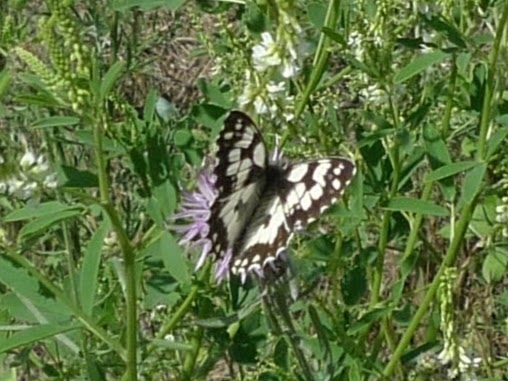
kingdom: Animalia
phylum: Arthropoda
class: Insecta
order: Lepidoptera
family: Nymphalidae
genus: Melanargia
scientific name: Melanargia galathea
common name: Marbled white
